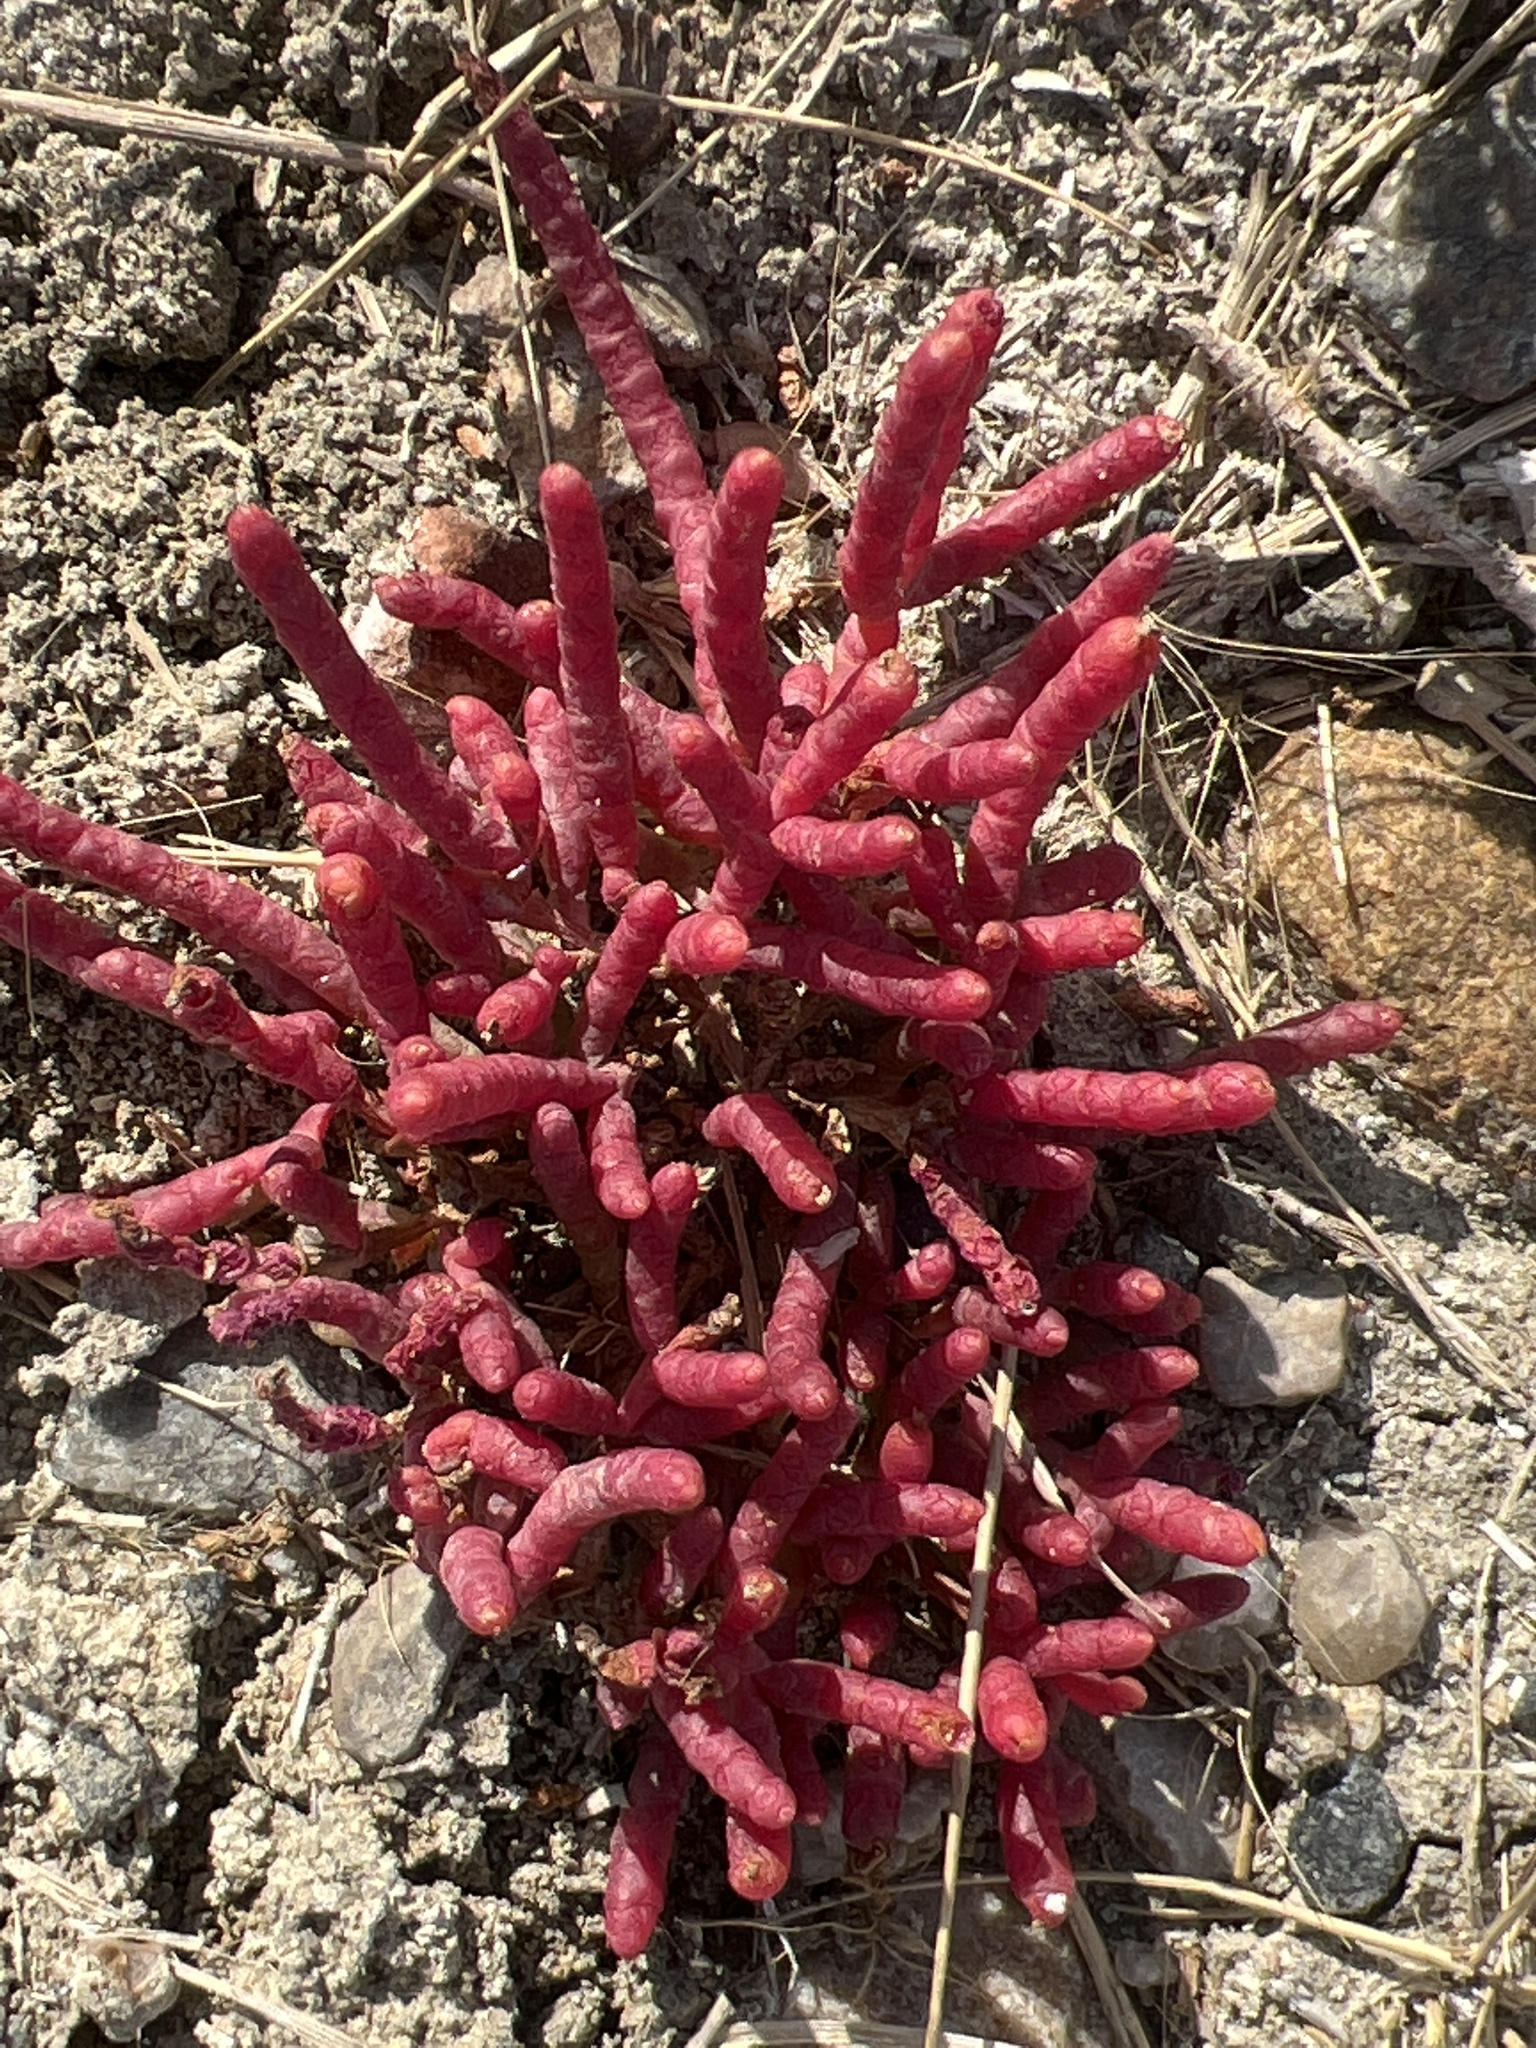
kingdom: Plantae
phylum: Tracheophyta
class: Magnoliopsida
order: Caryophyllales
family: Amaranthaceae
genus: Salicornia
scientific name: Salicornia rubra
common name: Red glasswort
